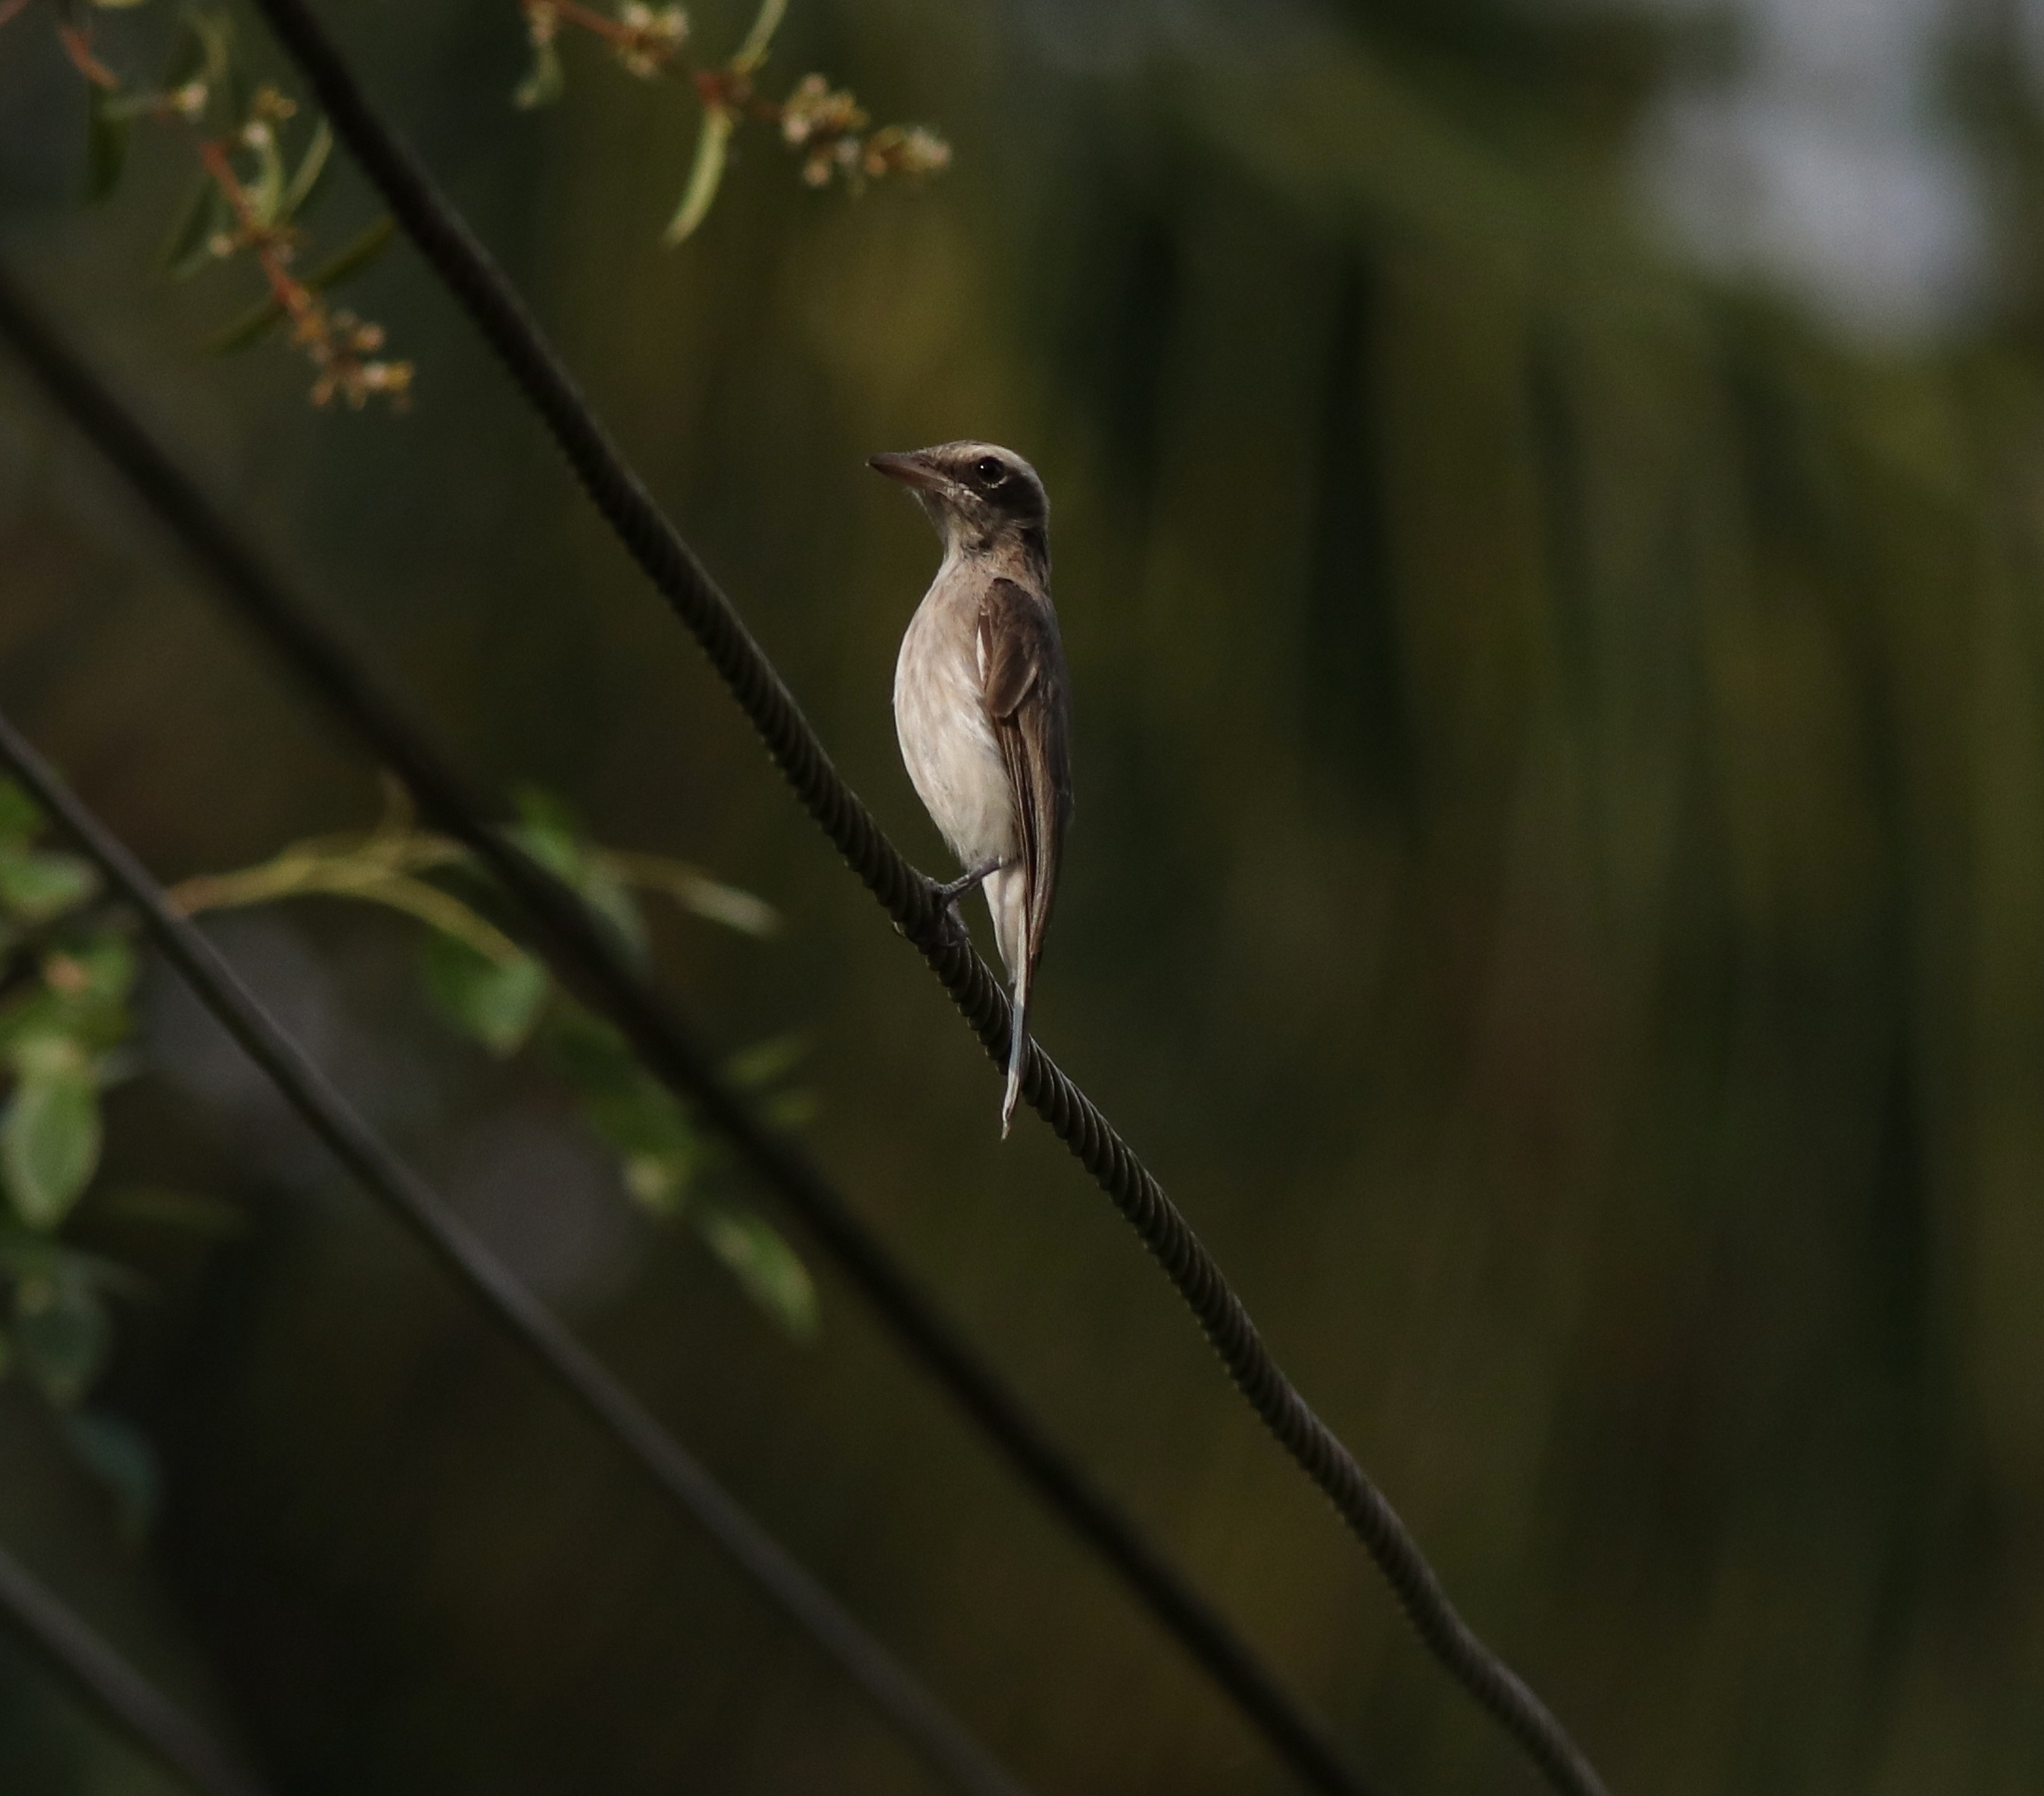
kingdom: Animalia
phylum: Chordata
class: Aves
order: Passeriformes
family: Tephrodornithidae
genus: Tephrodornis
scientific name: Tephrodornis pondicerianus
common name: Common woodshrike
